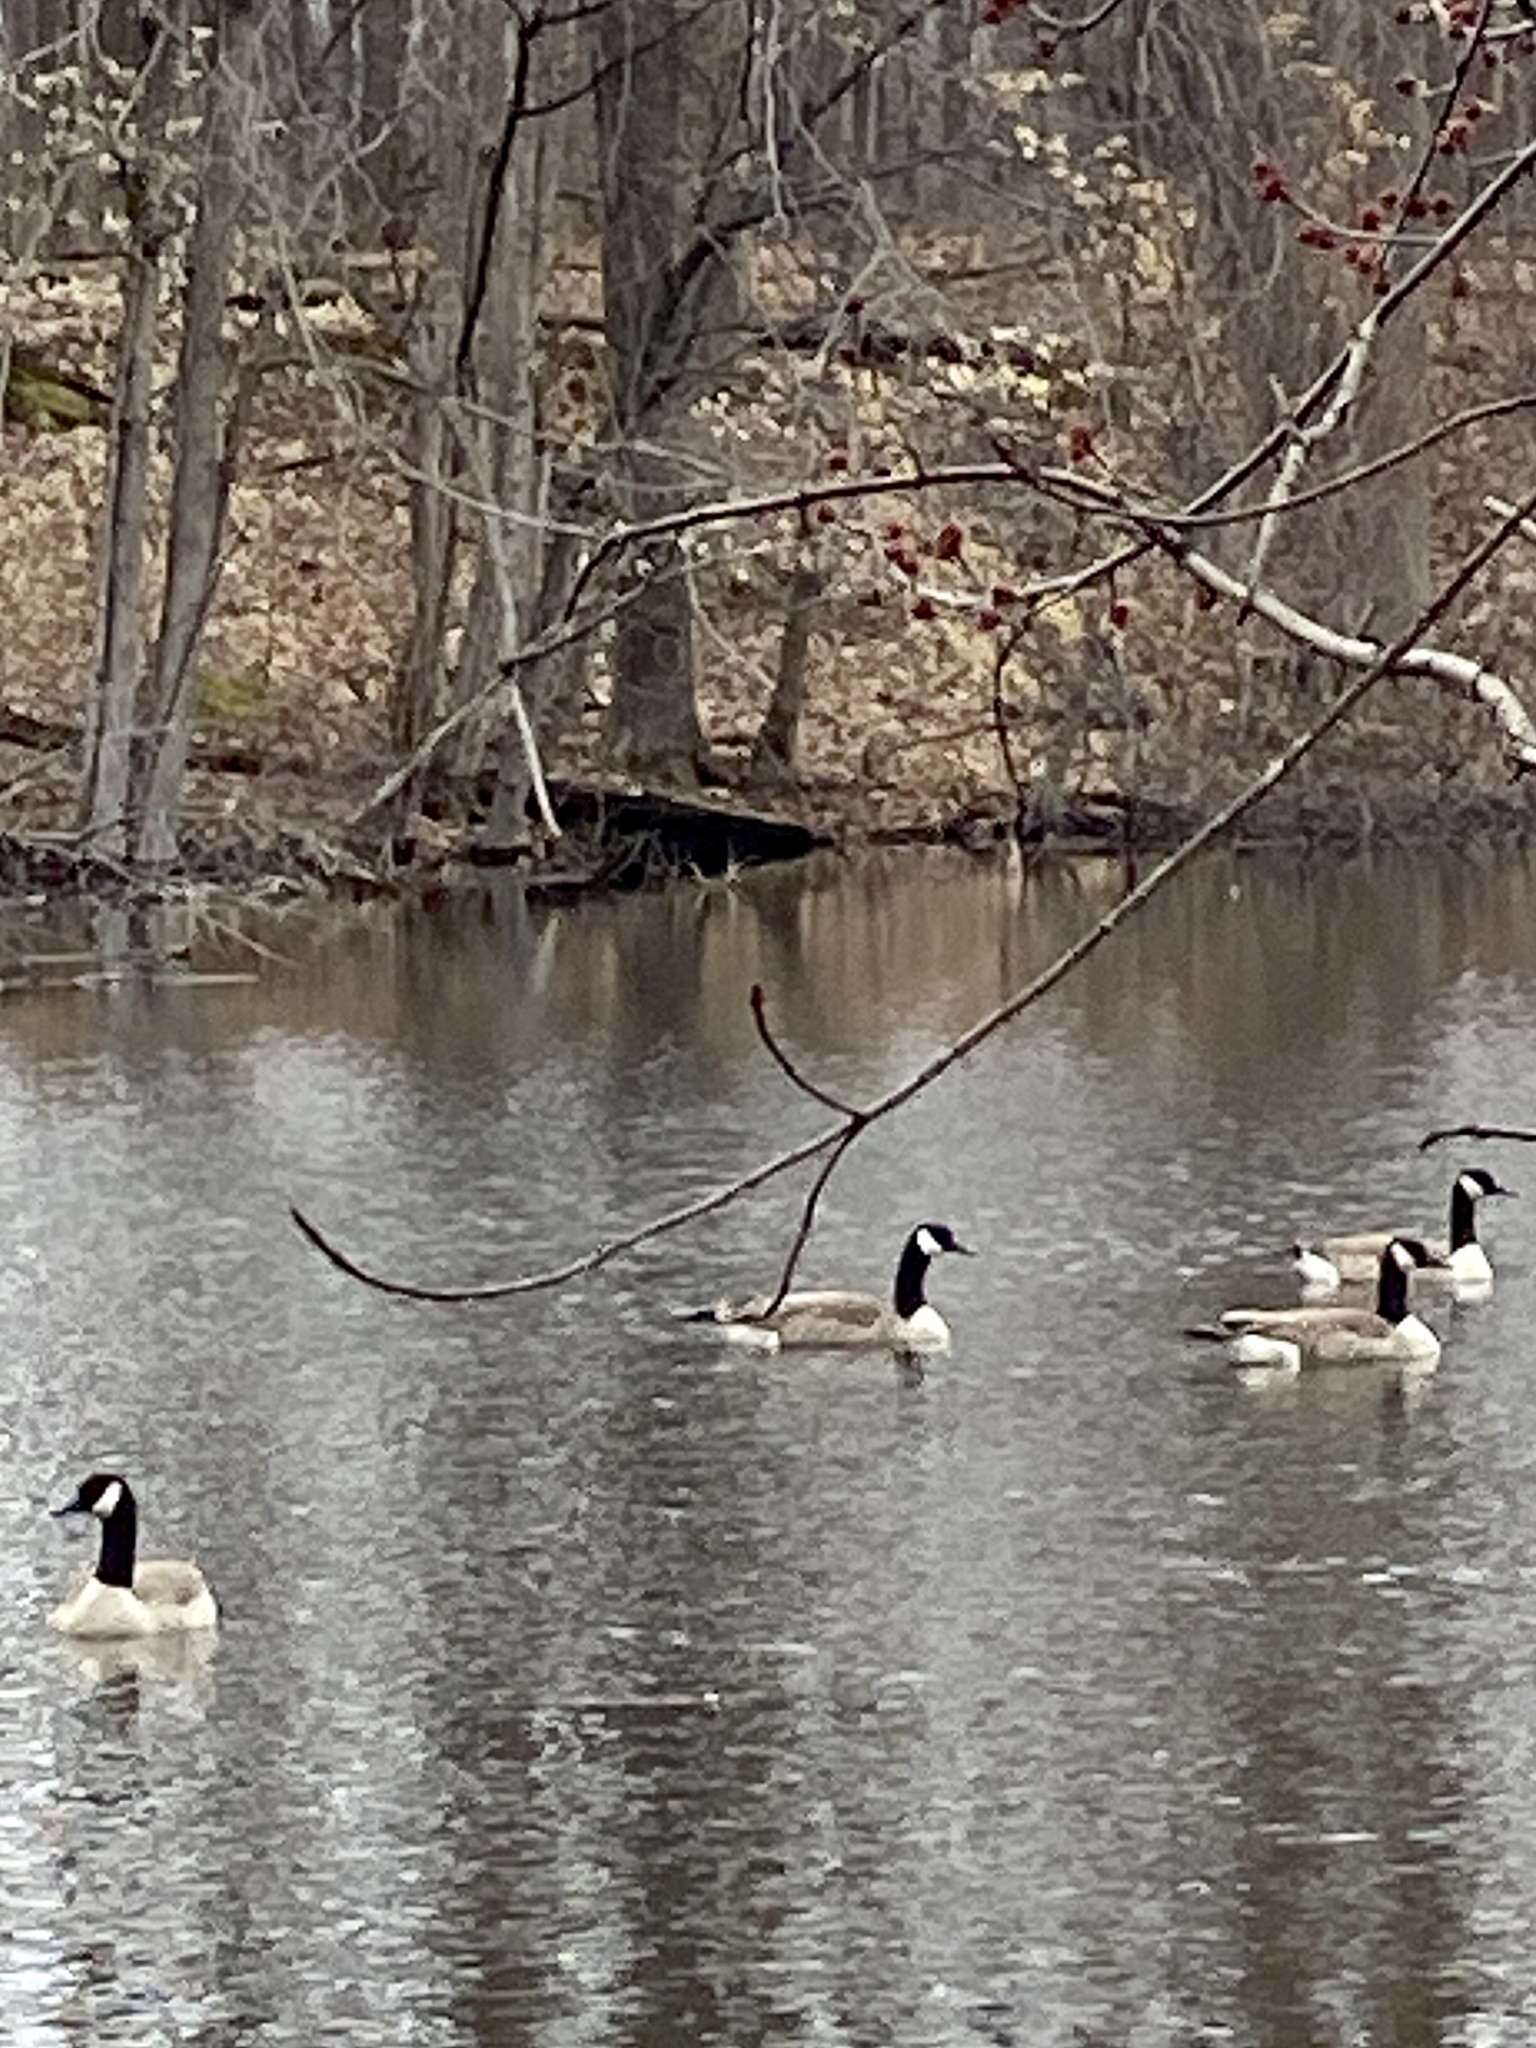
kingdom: Animalia
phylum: Chordata
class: Aves
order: Anseriformes
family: Anatidae
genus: Branta
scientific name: Branta canadensis
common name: Canada goose
